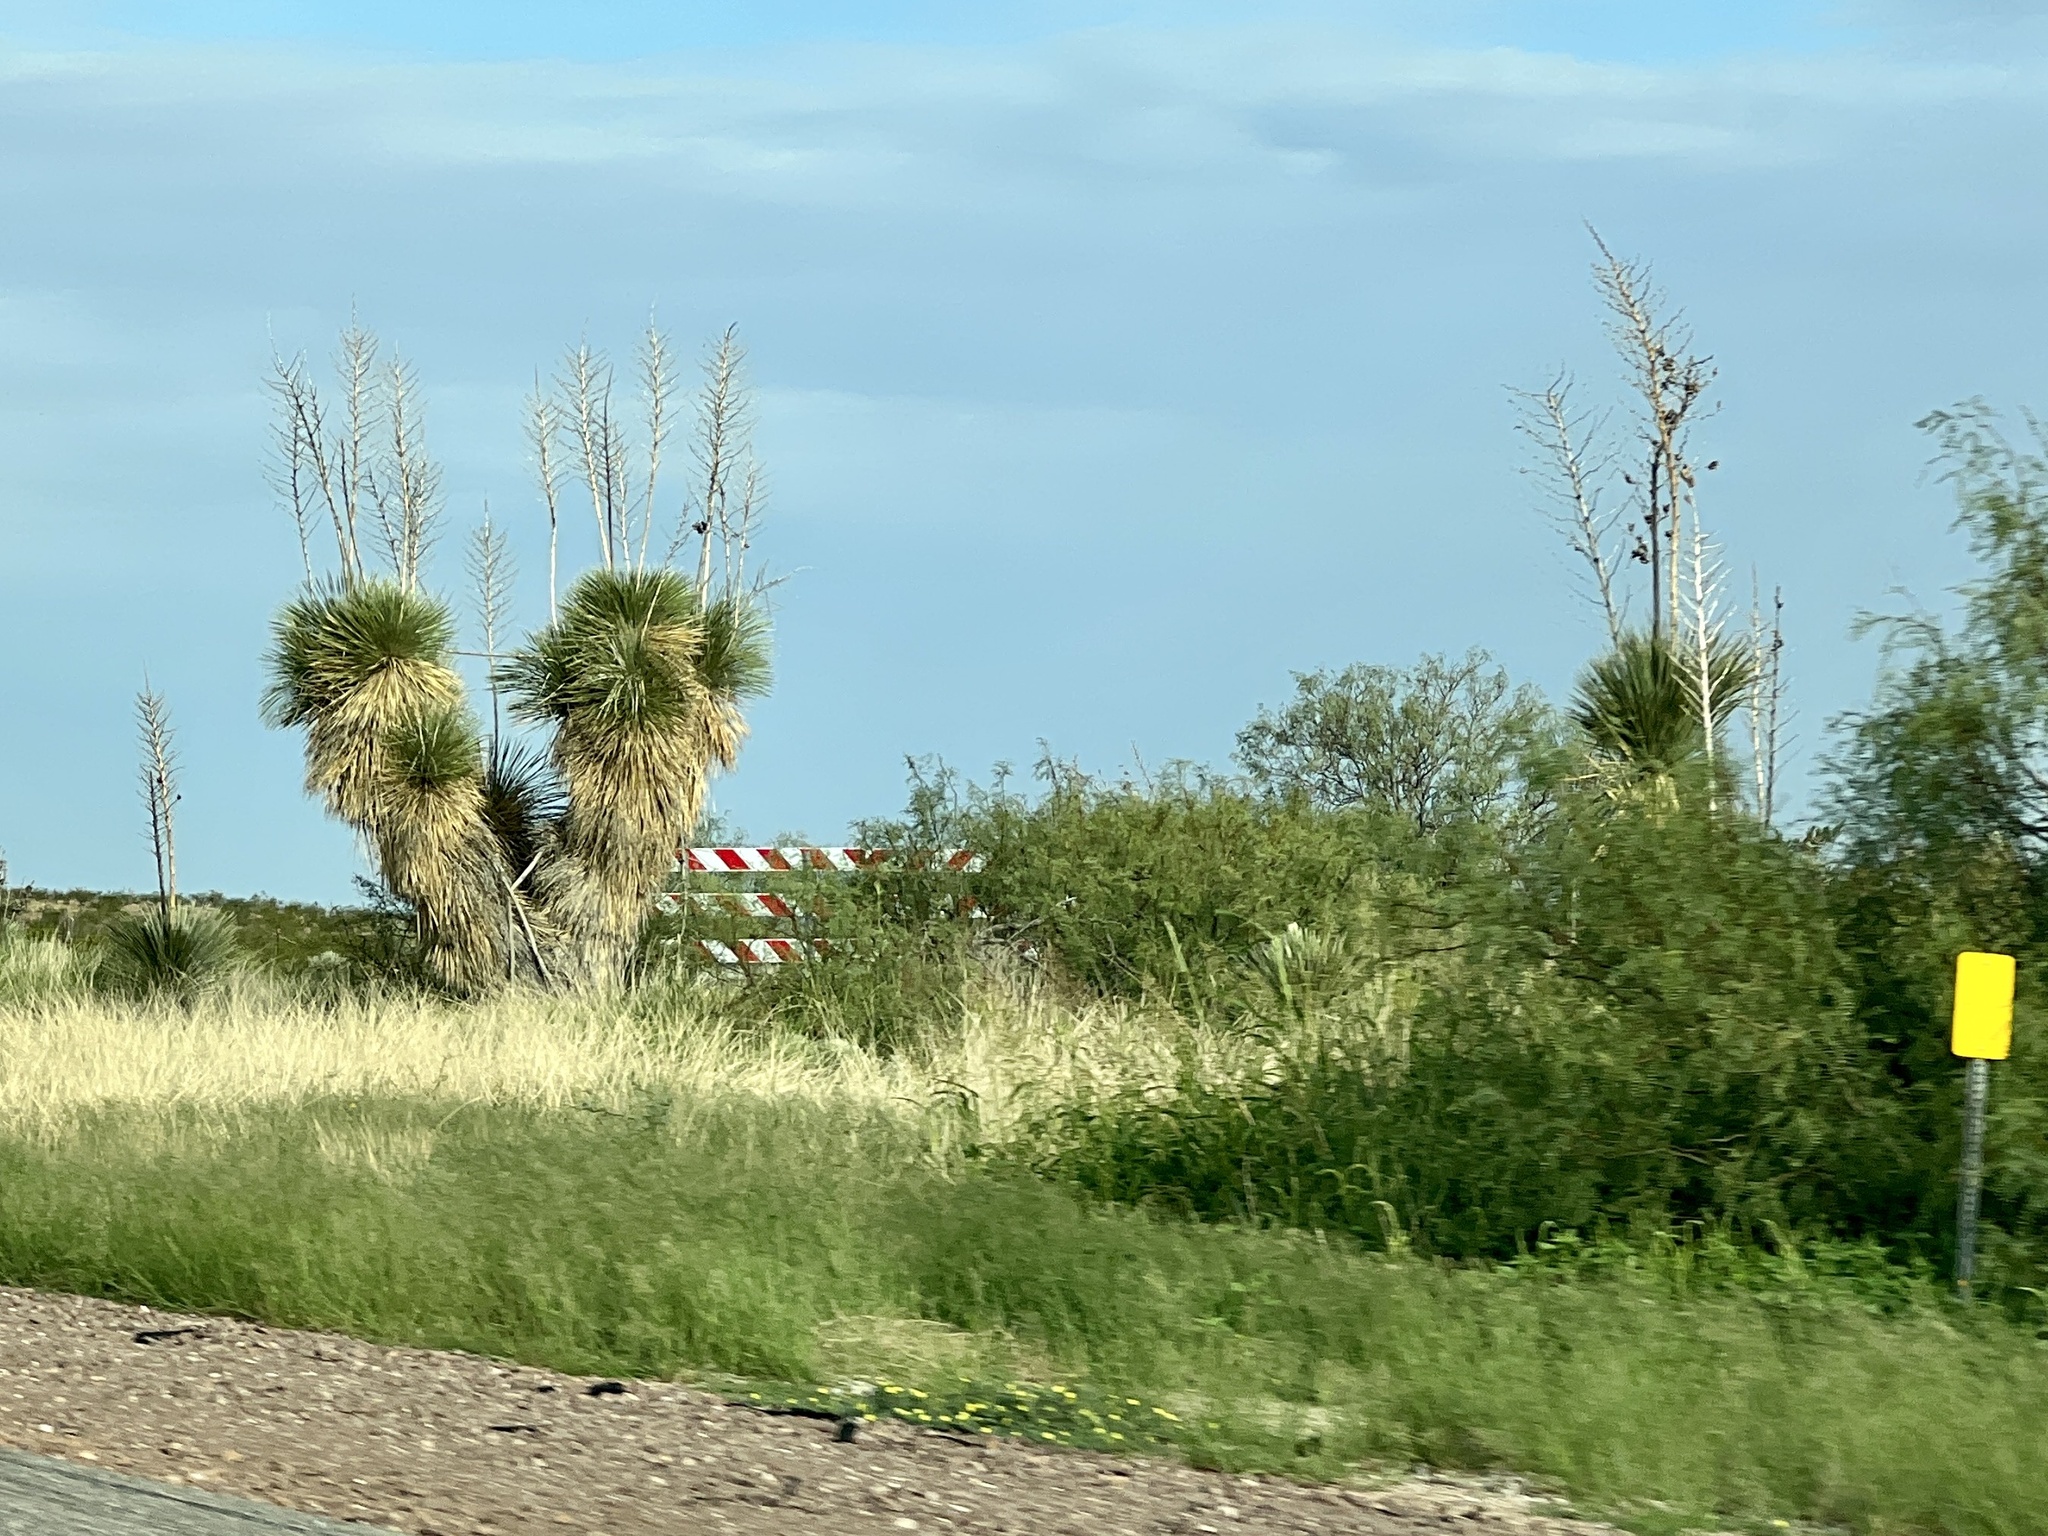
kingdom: Plantae
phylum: Tracheophyta
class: Liliopsida
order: Asparagales
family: Asparagaceae
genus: Yucca
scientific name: Yucca elata
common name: Palmella
